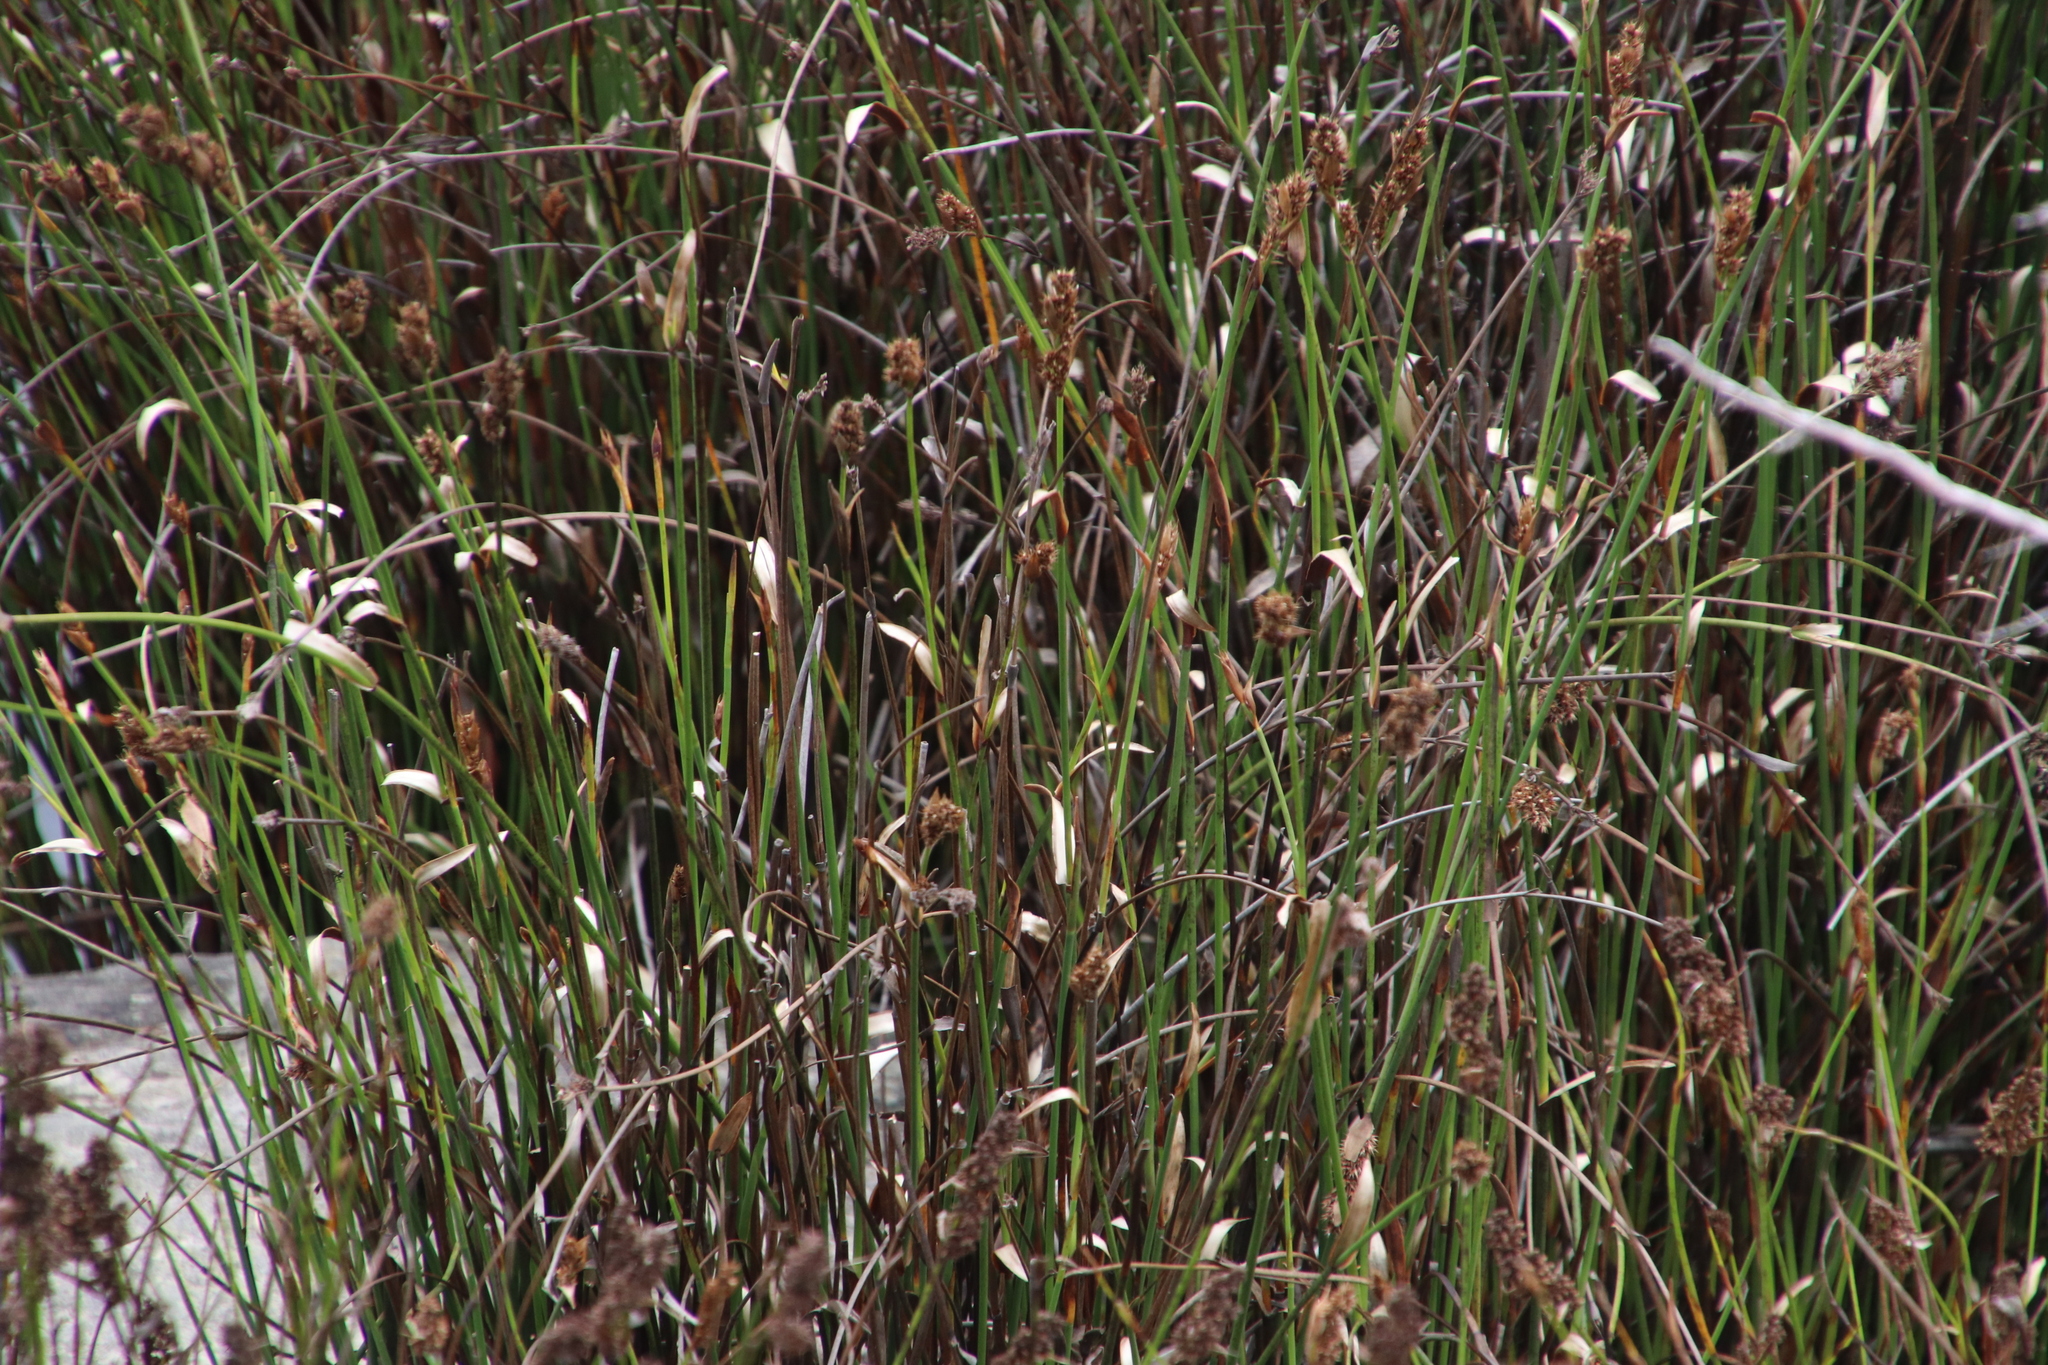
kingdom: Plantae
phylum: Tracheophyta
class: Liliopsida
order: Poales
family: Restionaceae
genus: Elegia
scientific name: Elegia asperiflora
